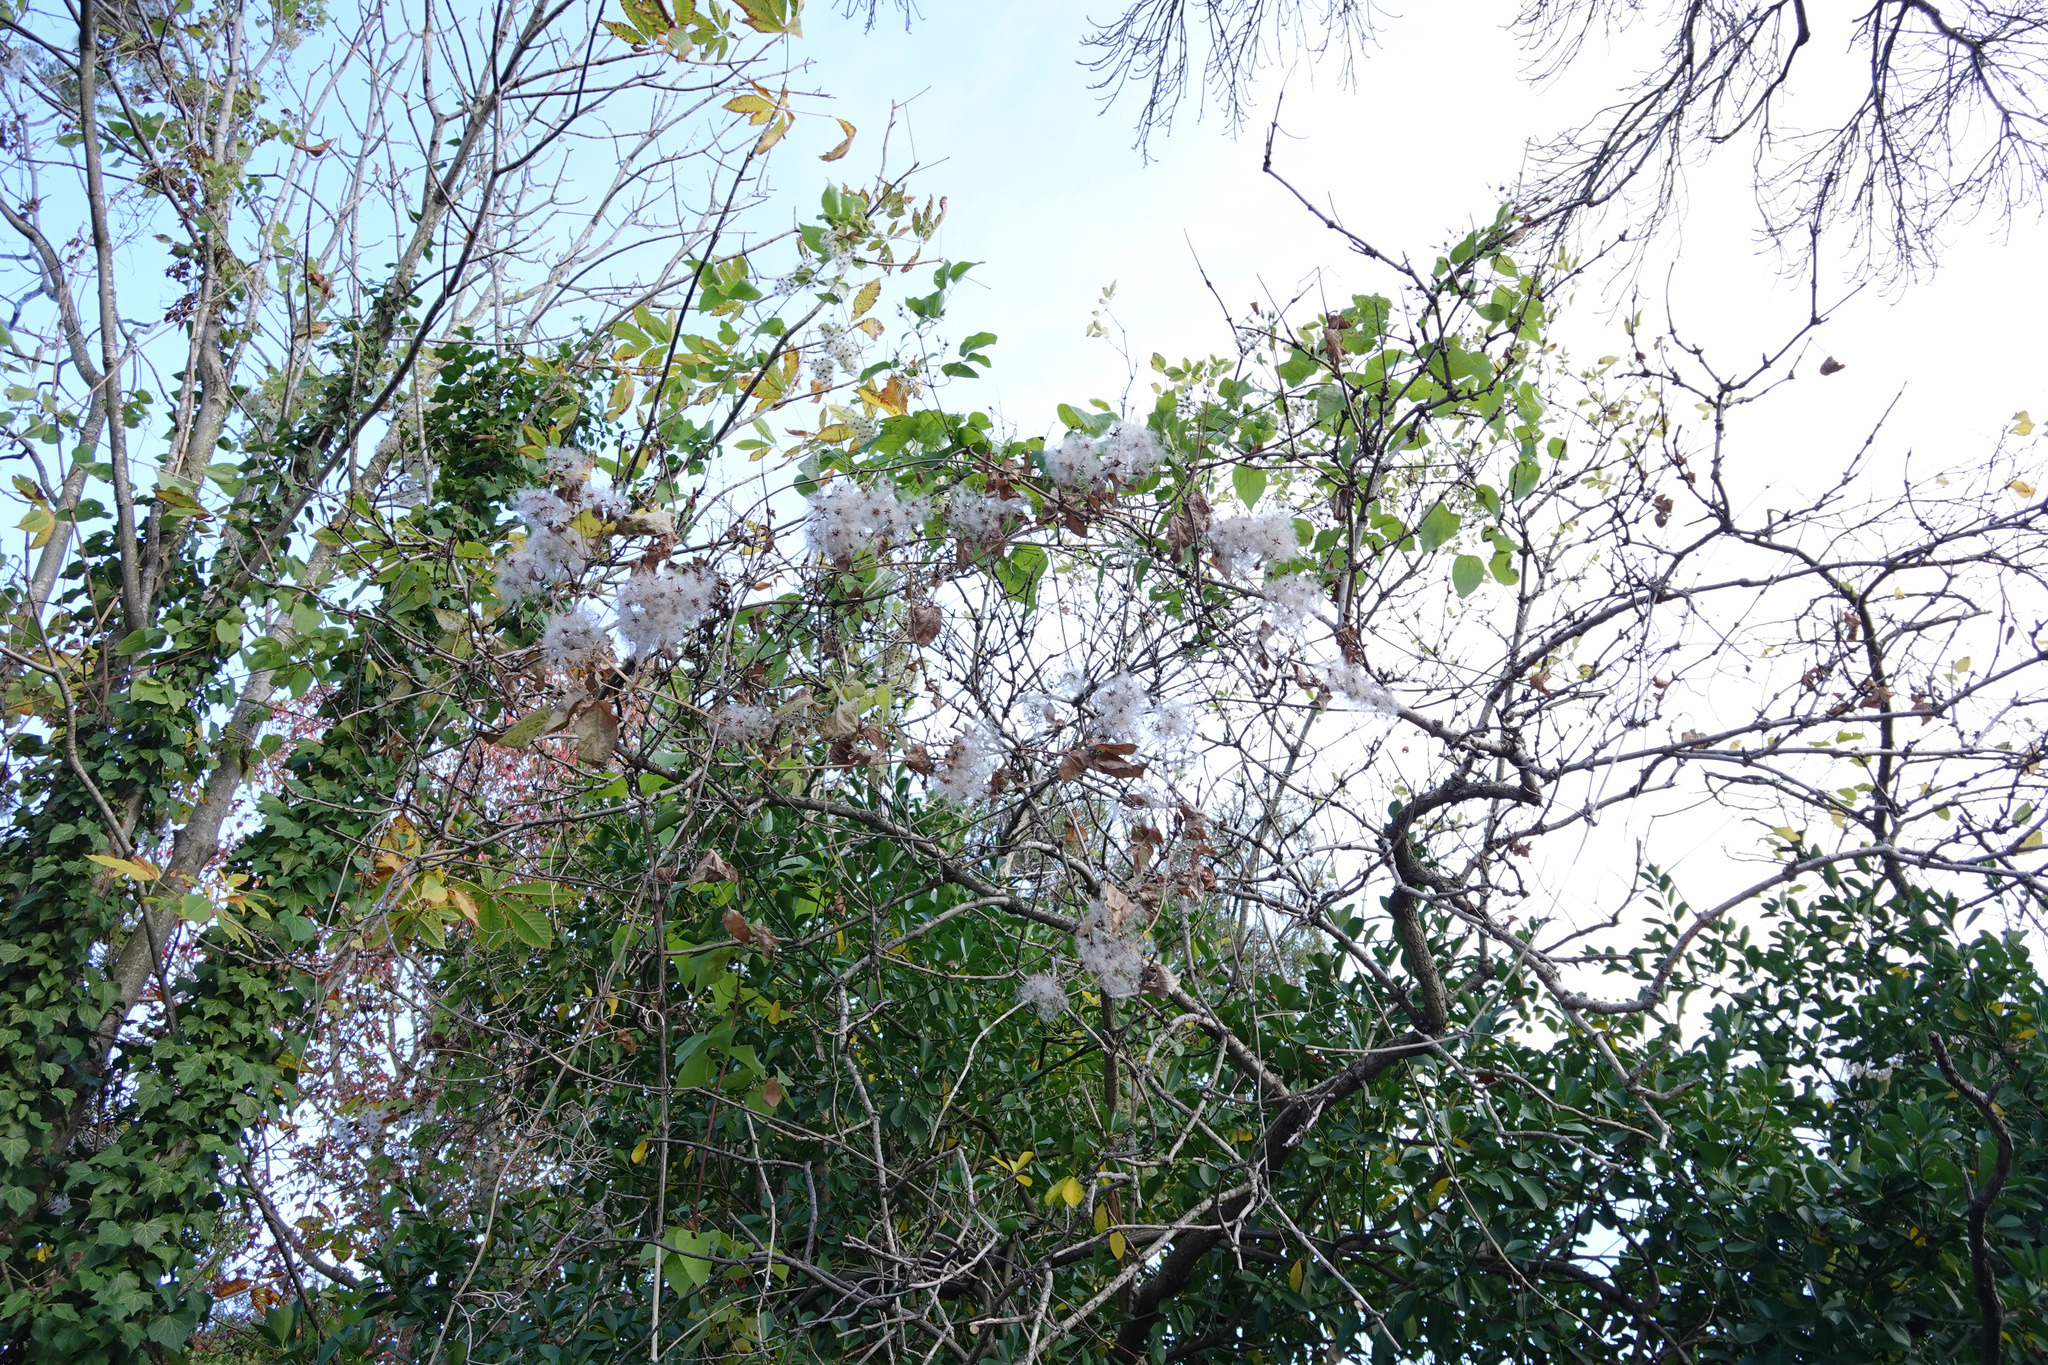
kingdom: Plantae
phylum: Tracheophyta
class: Magnoliopsida
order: Ranunculales
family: Ranunculaceae
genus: Clematis
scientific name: Clematis vitalba
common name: Evergreen clematis
